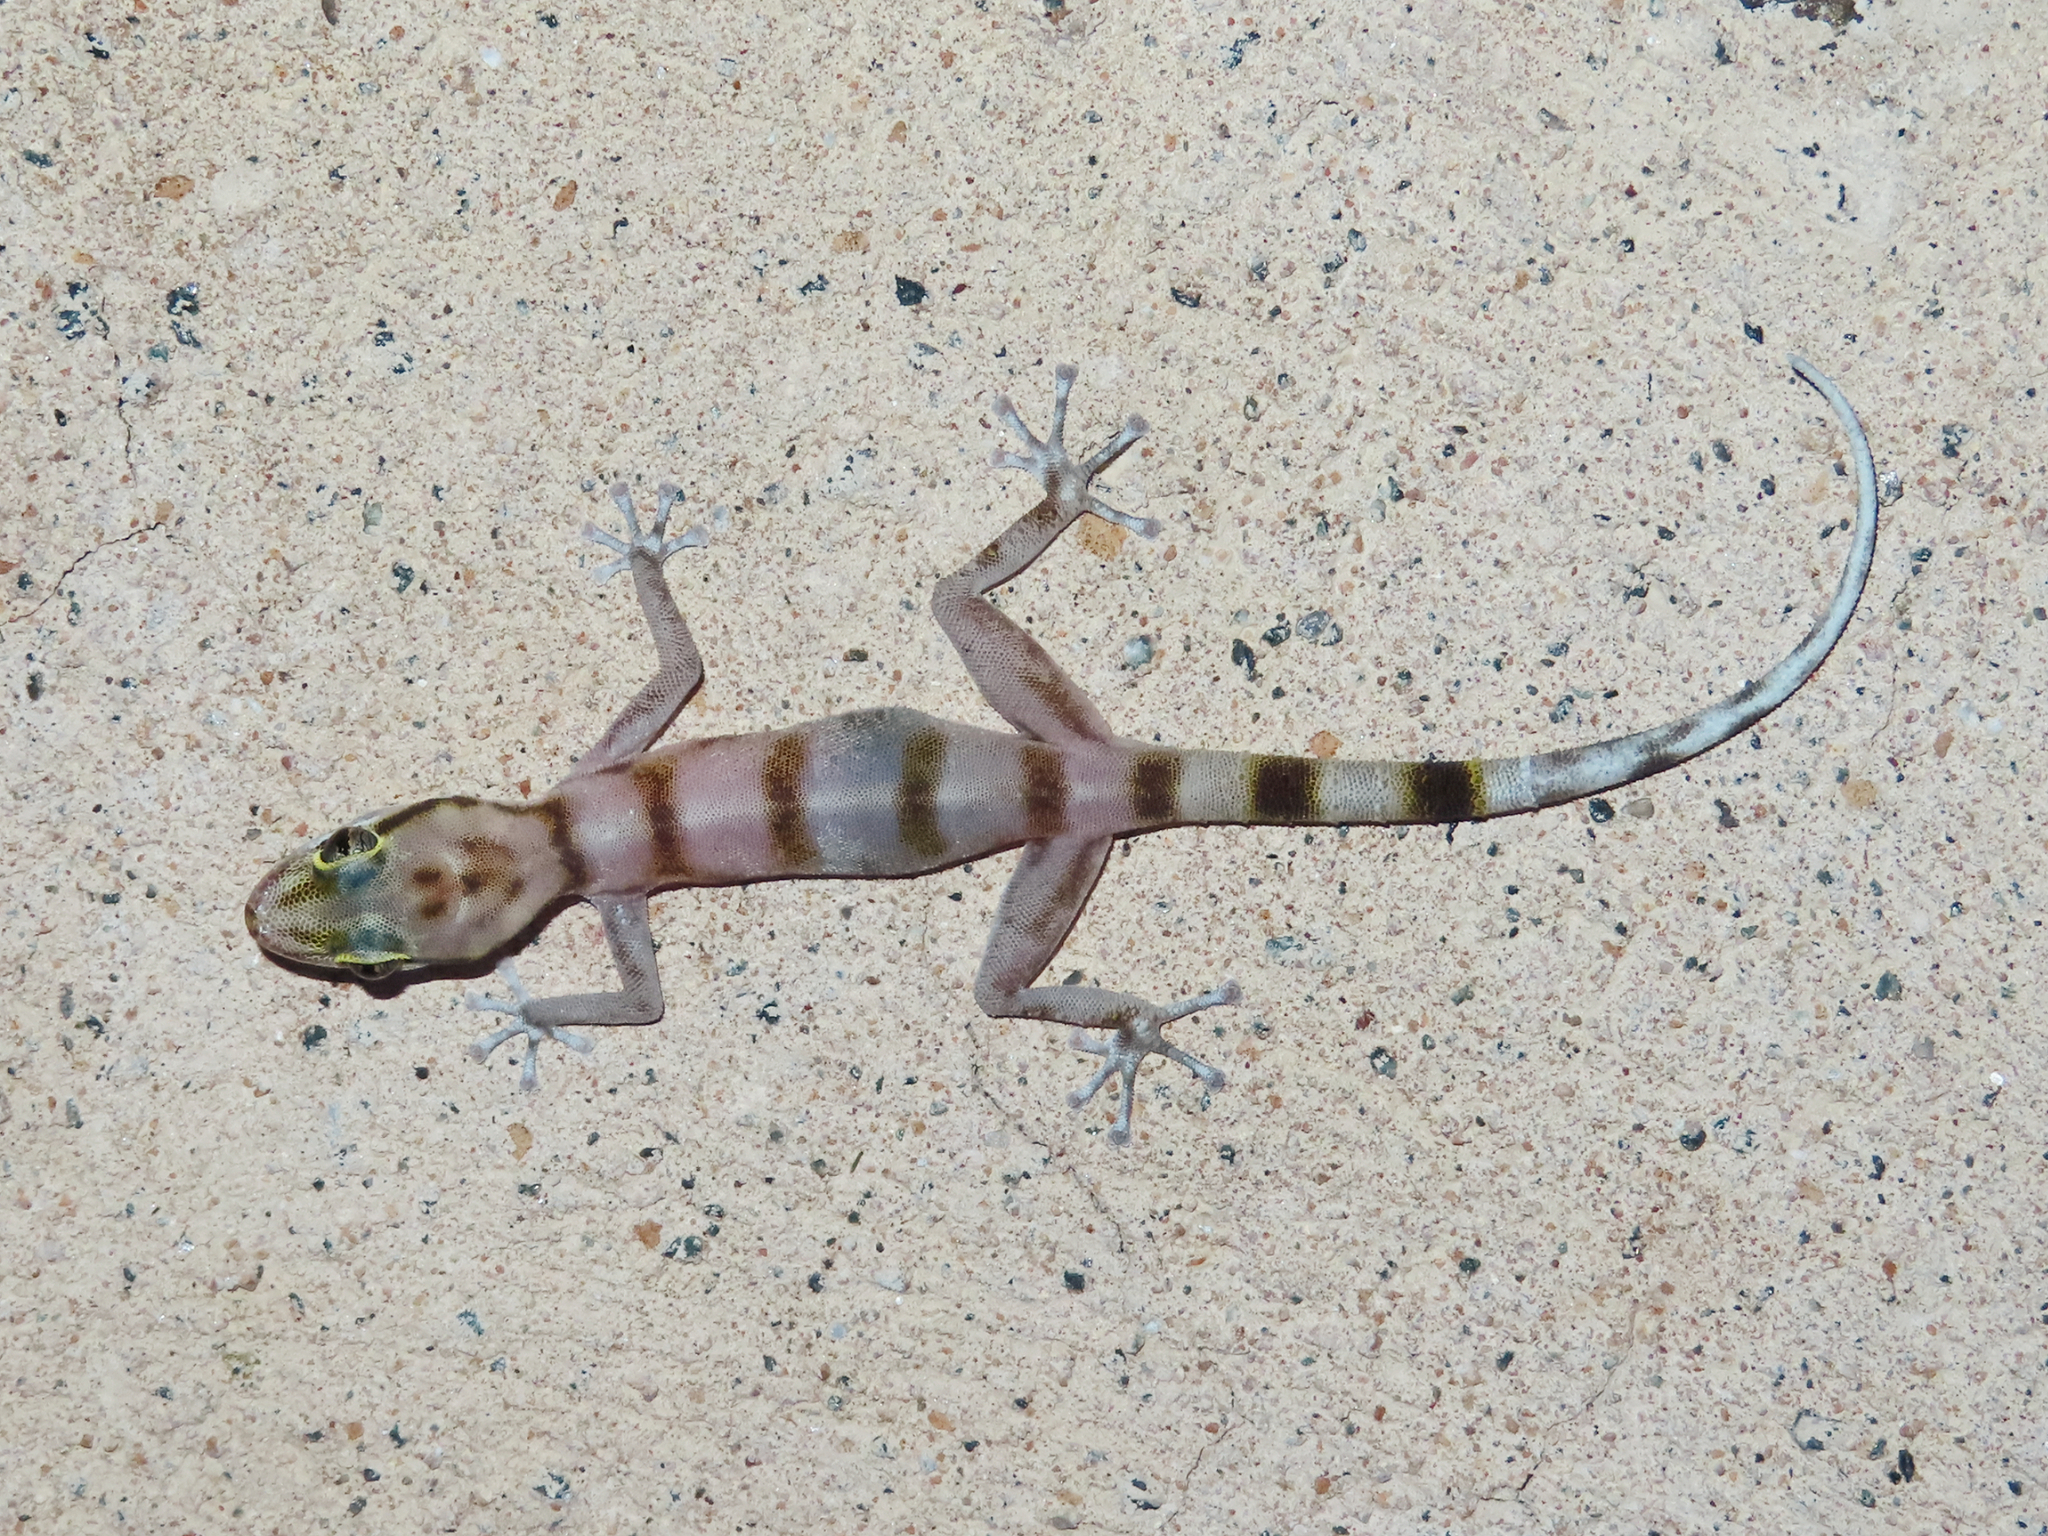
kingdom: Animalia
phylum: Chordata
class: Squamata
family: Phyllodactylidae
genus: Asaccus
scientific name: Asaccus gallagheri
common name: Gallagher's gecko
